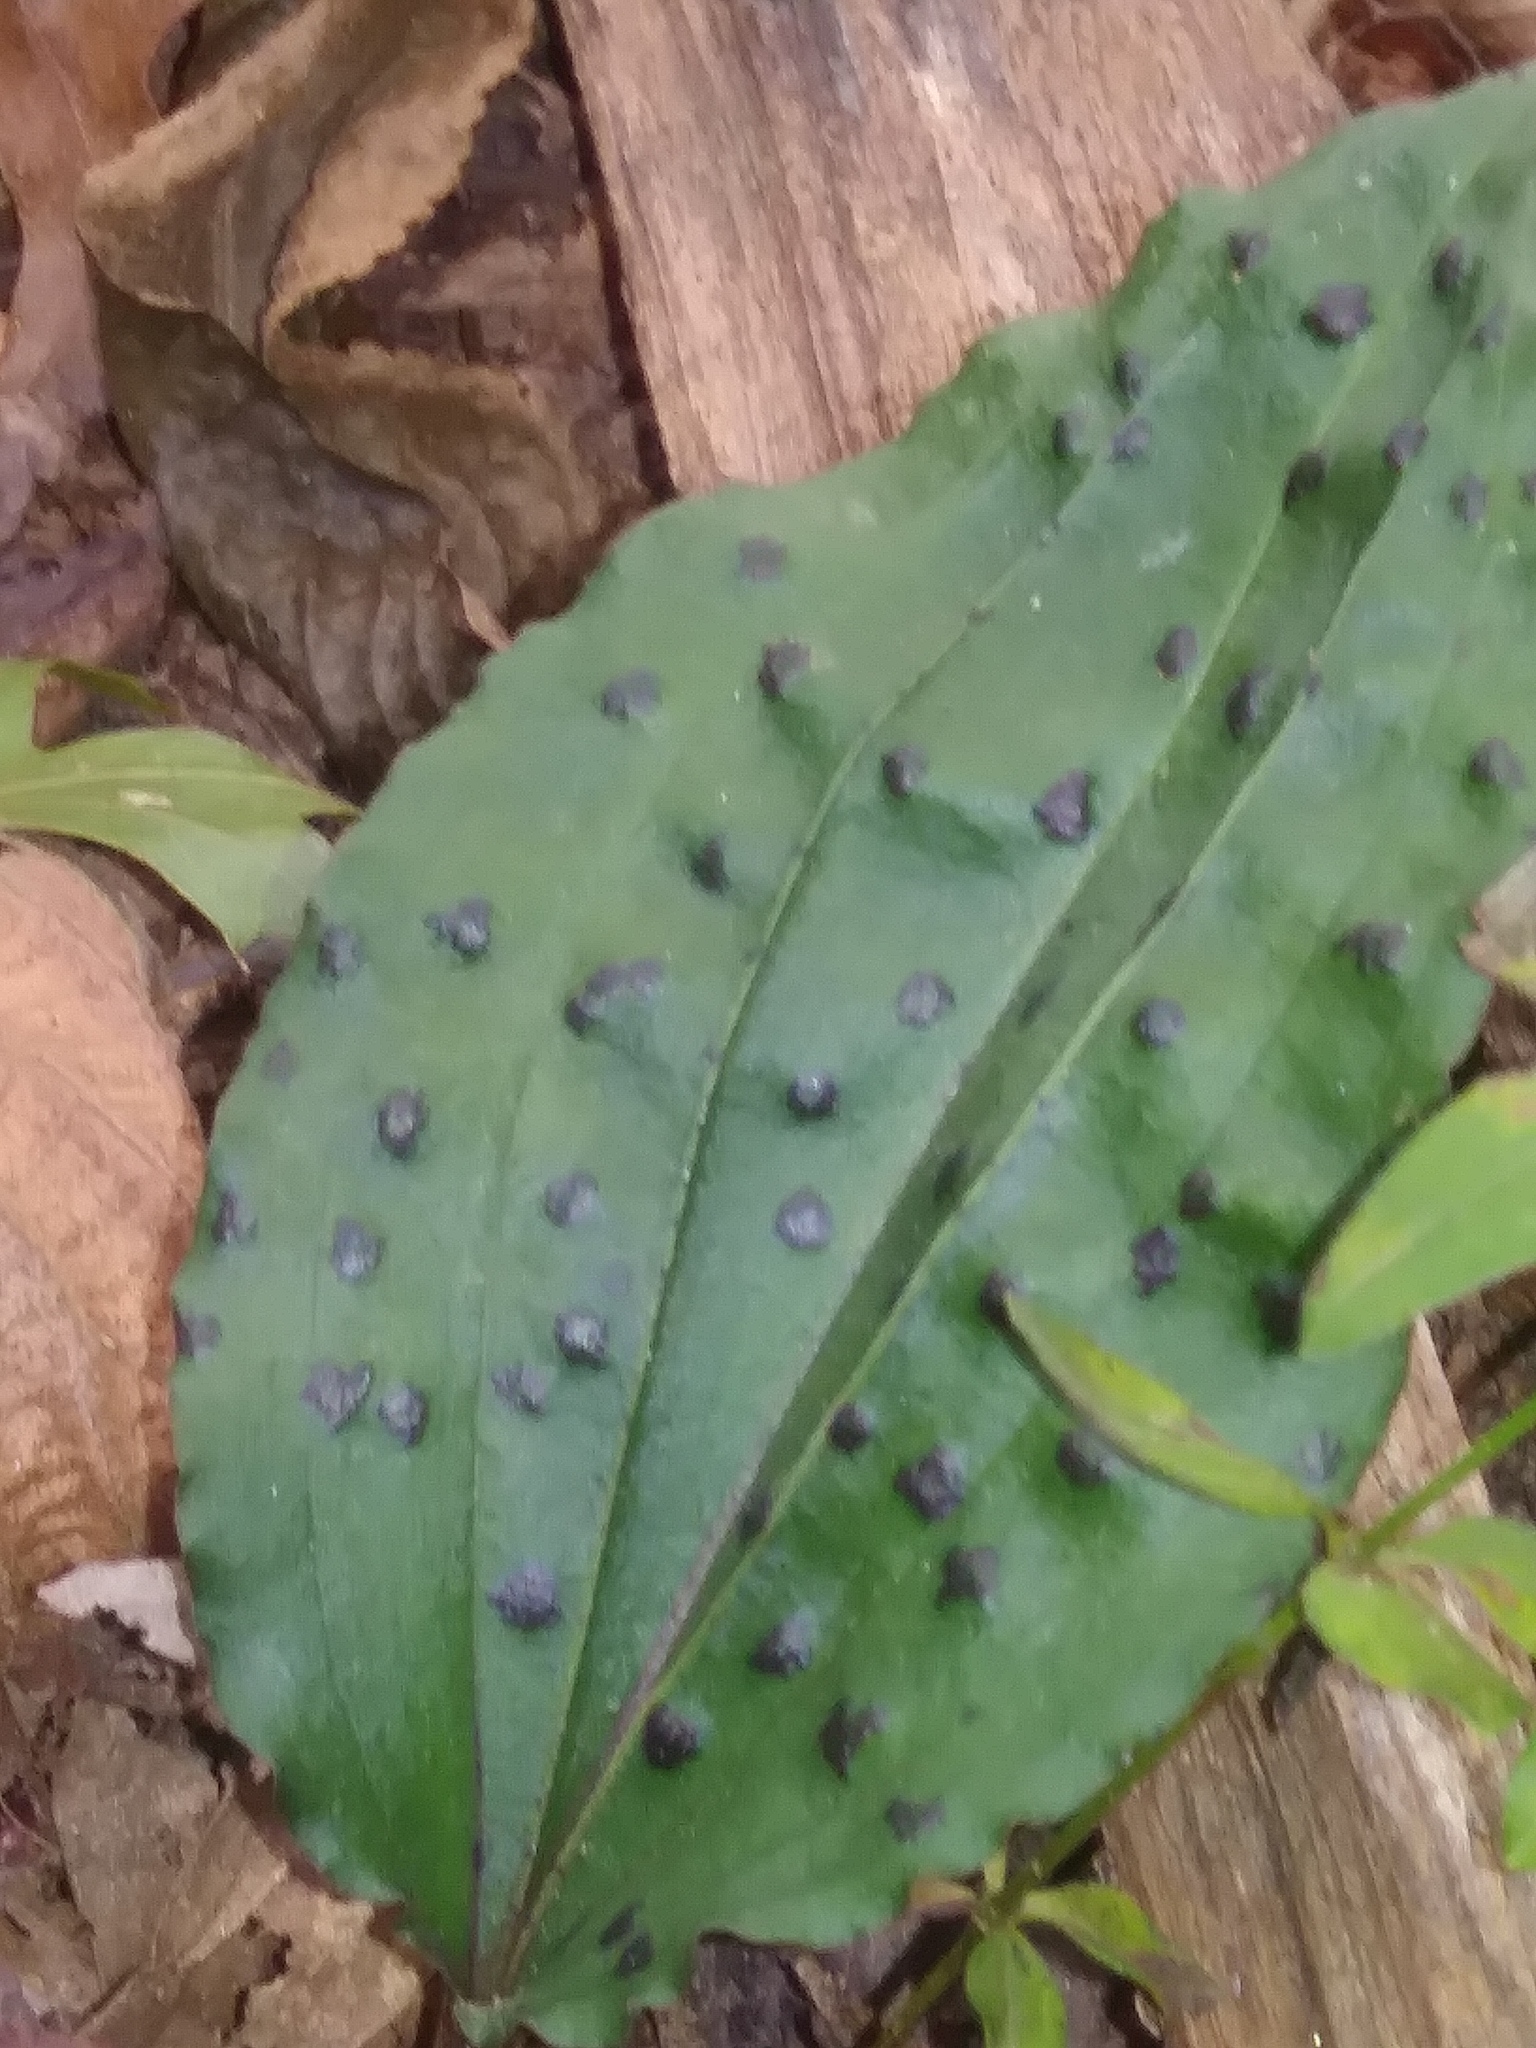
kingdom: Plantae
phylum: Tracheophyta
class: Liliopsida
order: Asparagales
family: Orchidaceae
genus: Tipularia
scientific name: Tipularia discolor
